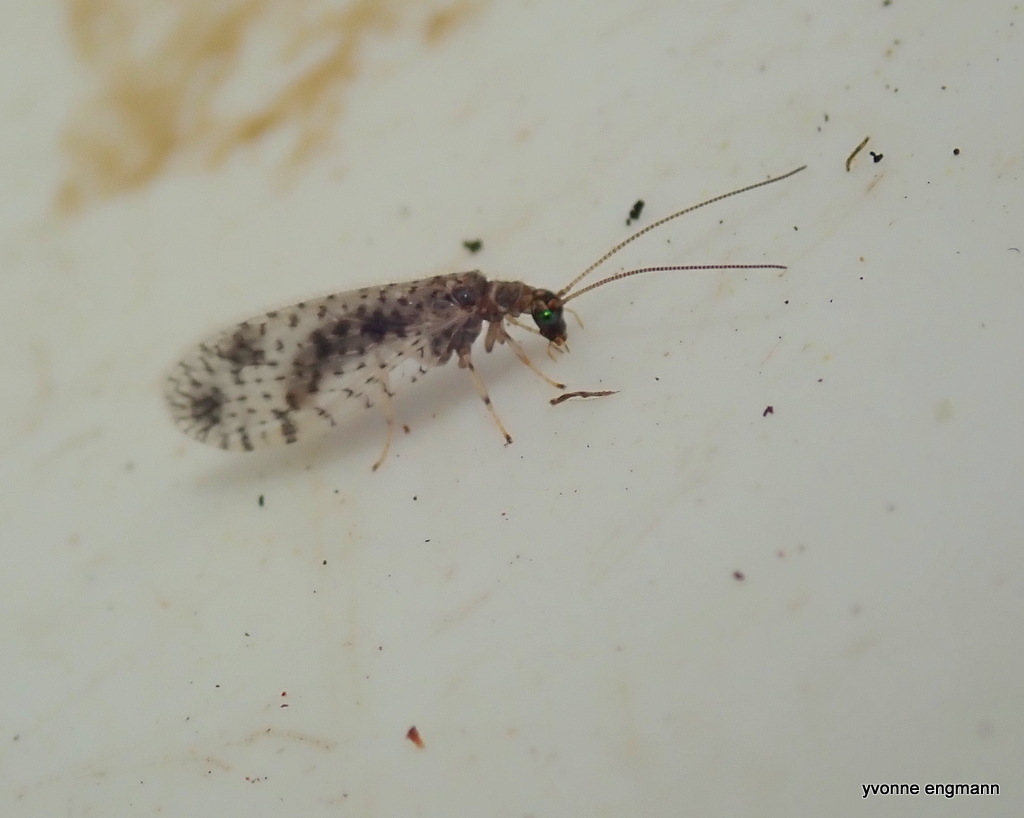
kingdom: Animalia
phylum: Arthropoda
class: Insecta
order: Neuroptera
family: Hemerobiidae
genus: Micromus
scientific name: Micromus variegatus
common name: Brown lacewing
